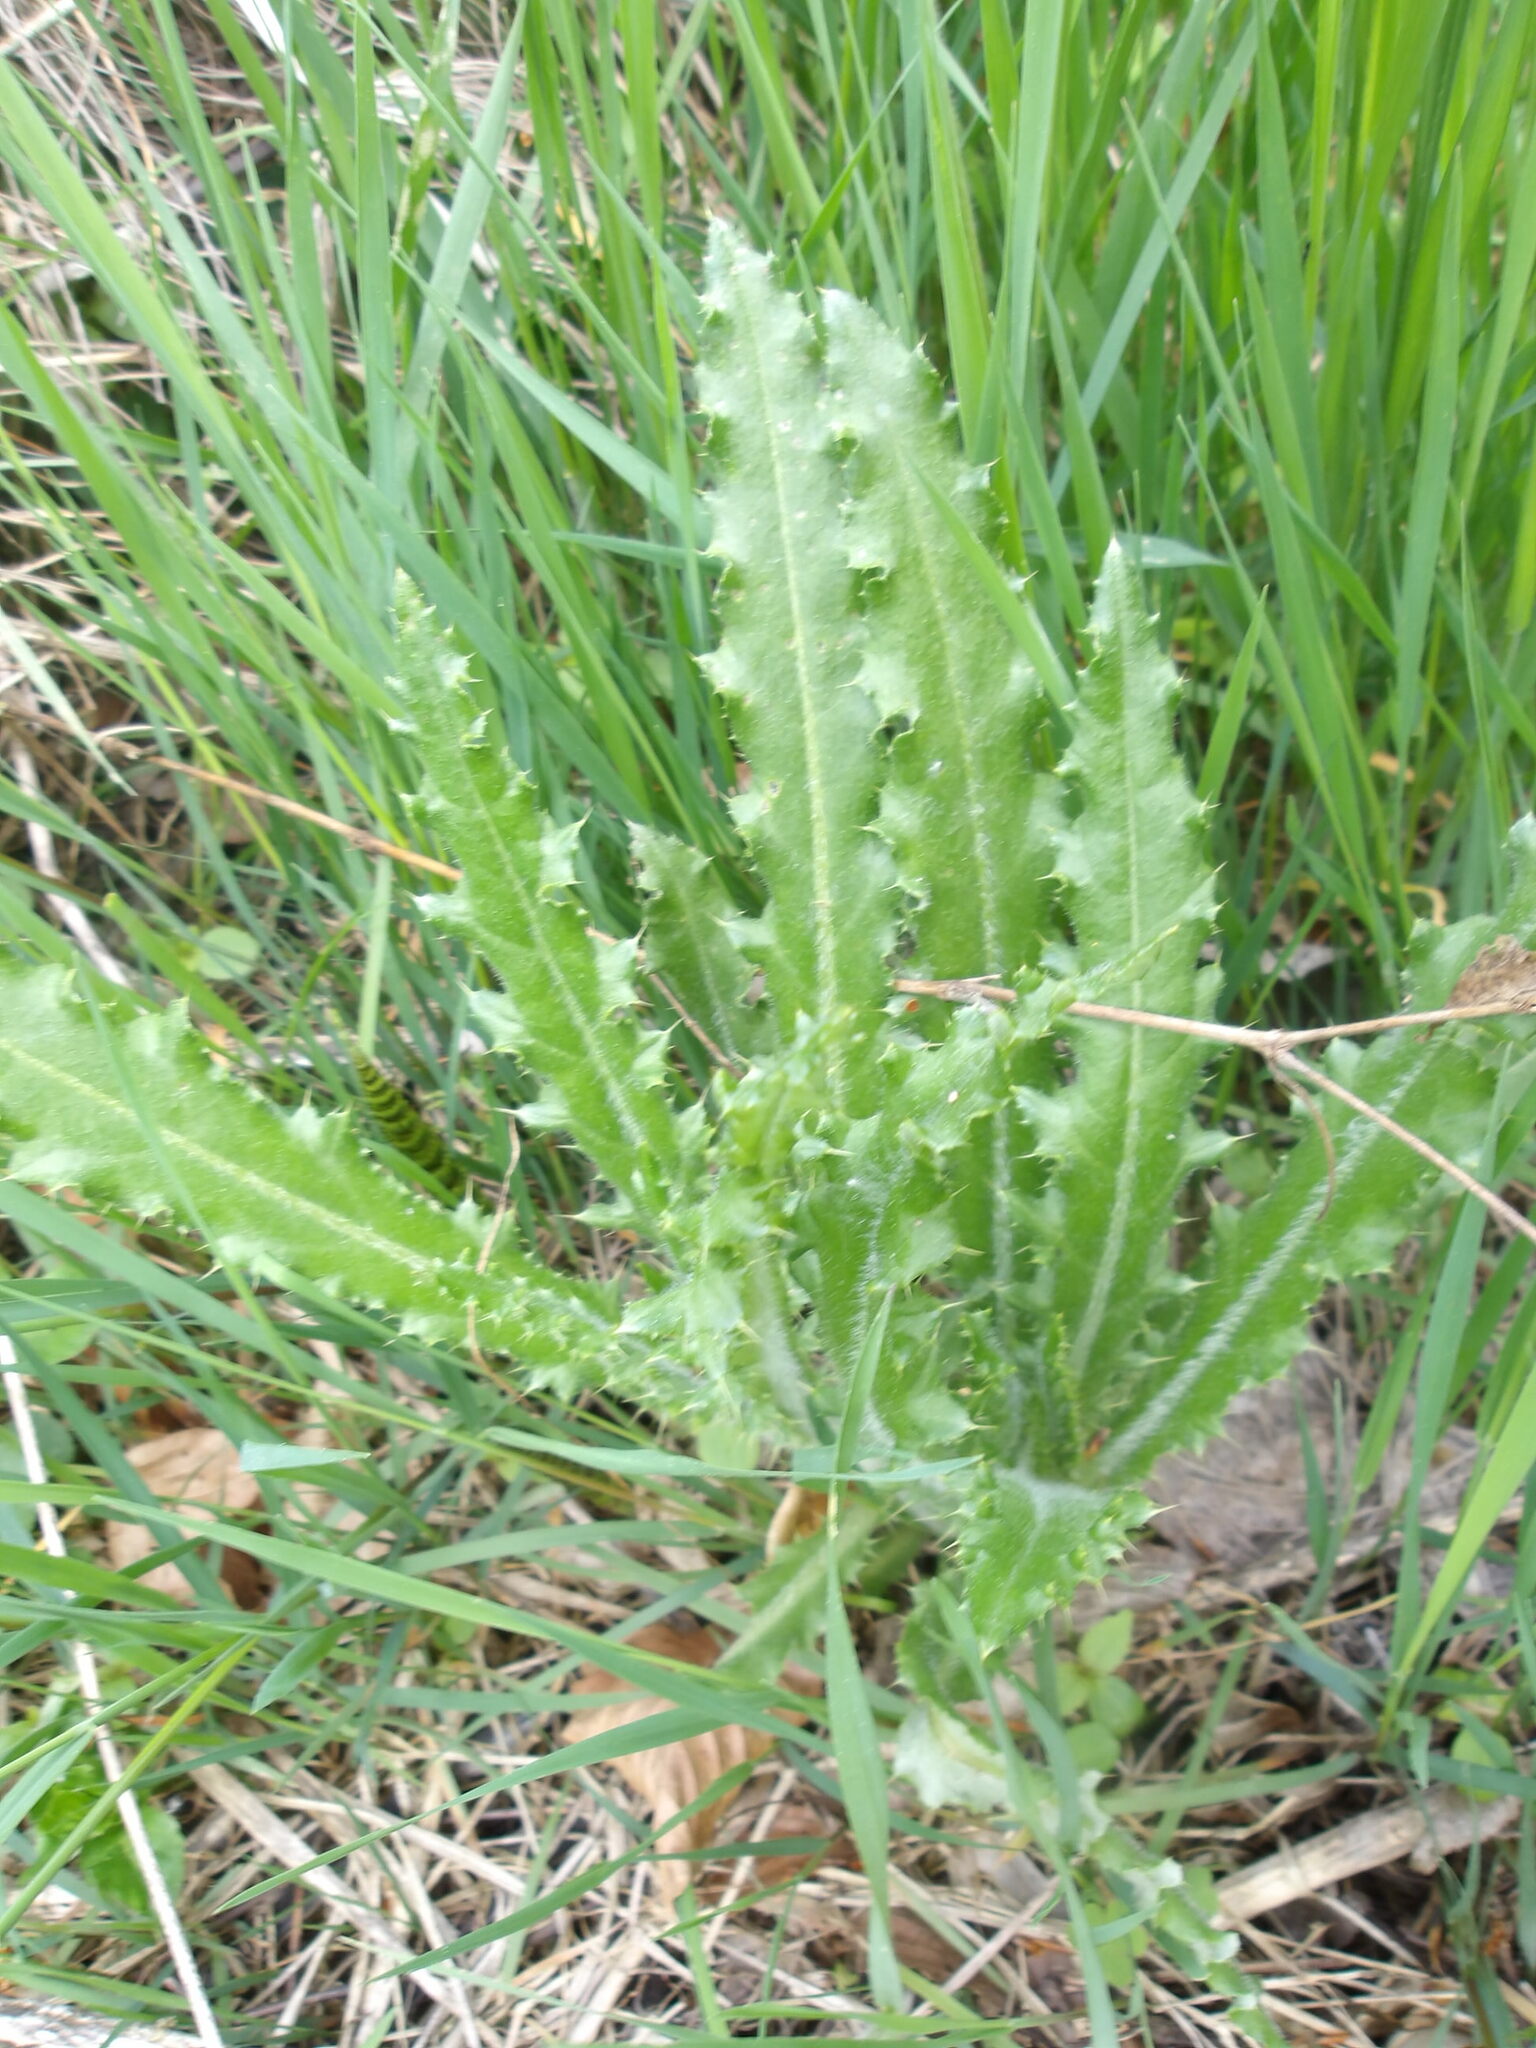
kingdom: Plantae
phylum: Tracheophyta
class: Magnoliopsida
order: Asterales
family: Asteraceae
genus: Cirsium
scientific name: Cirsium arvense
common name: Creeping thistle
